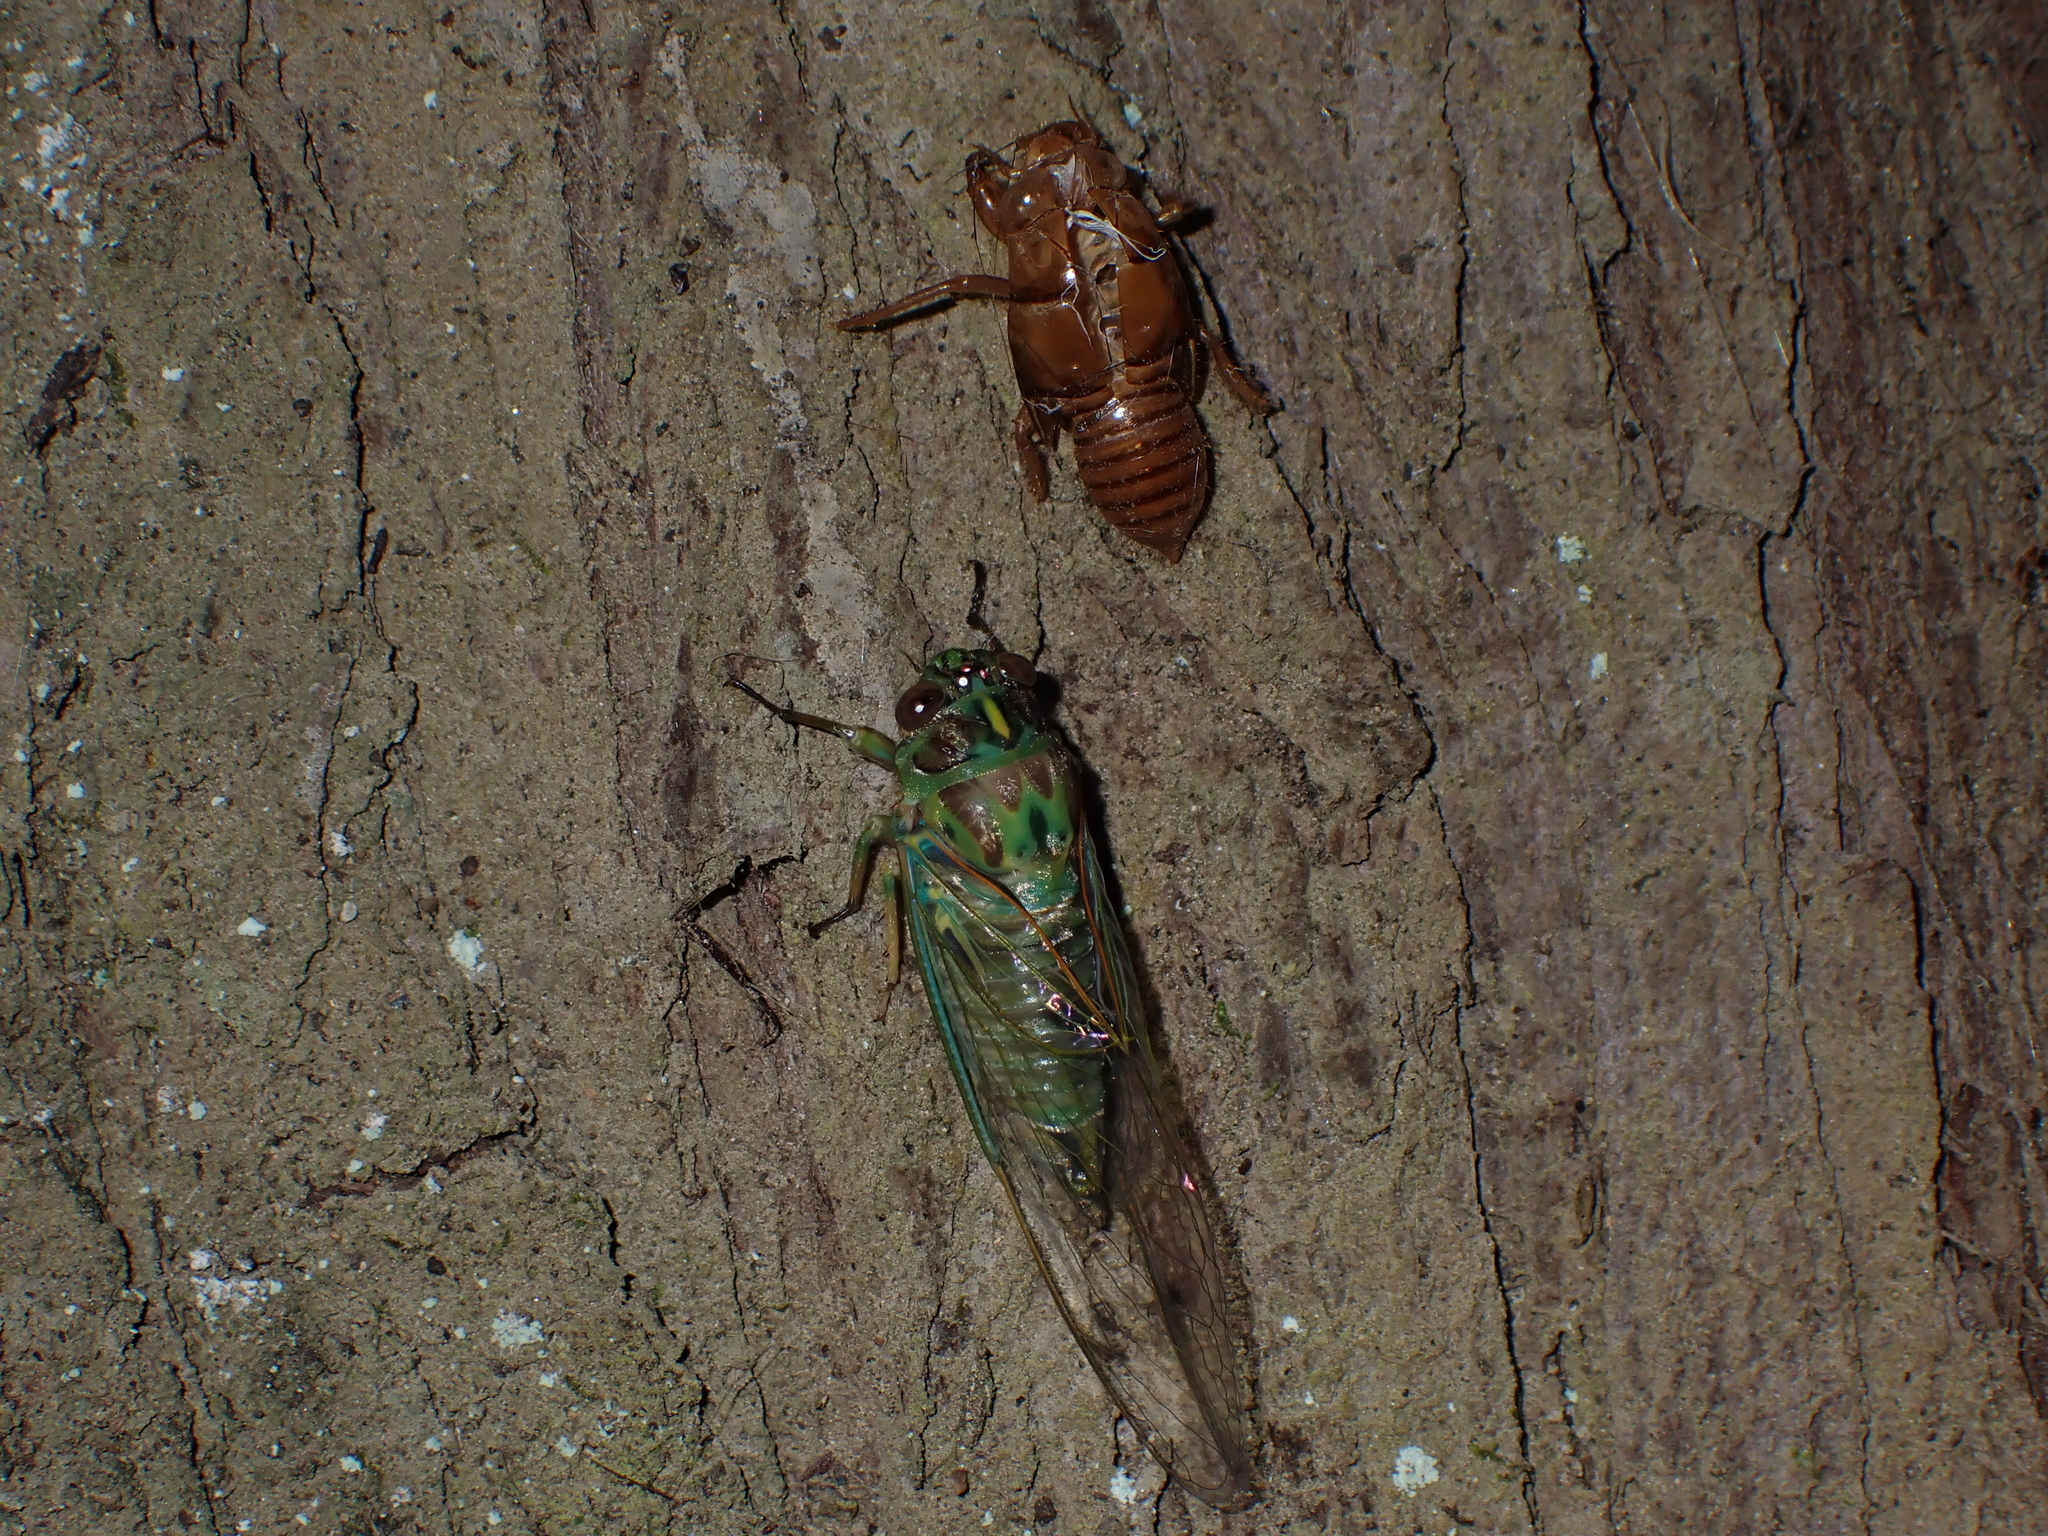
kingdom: Animalia
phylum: Arthropoda
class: Insecta
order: Hemiptera
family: Cicadidae
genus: Amphipsalta
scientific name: Amphipsalta zelandica
